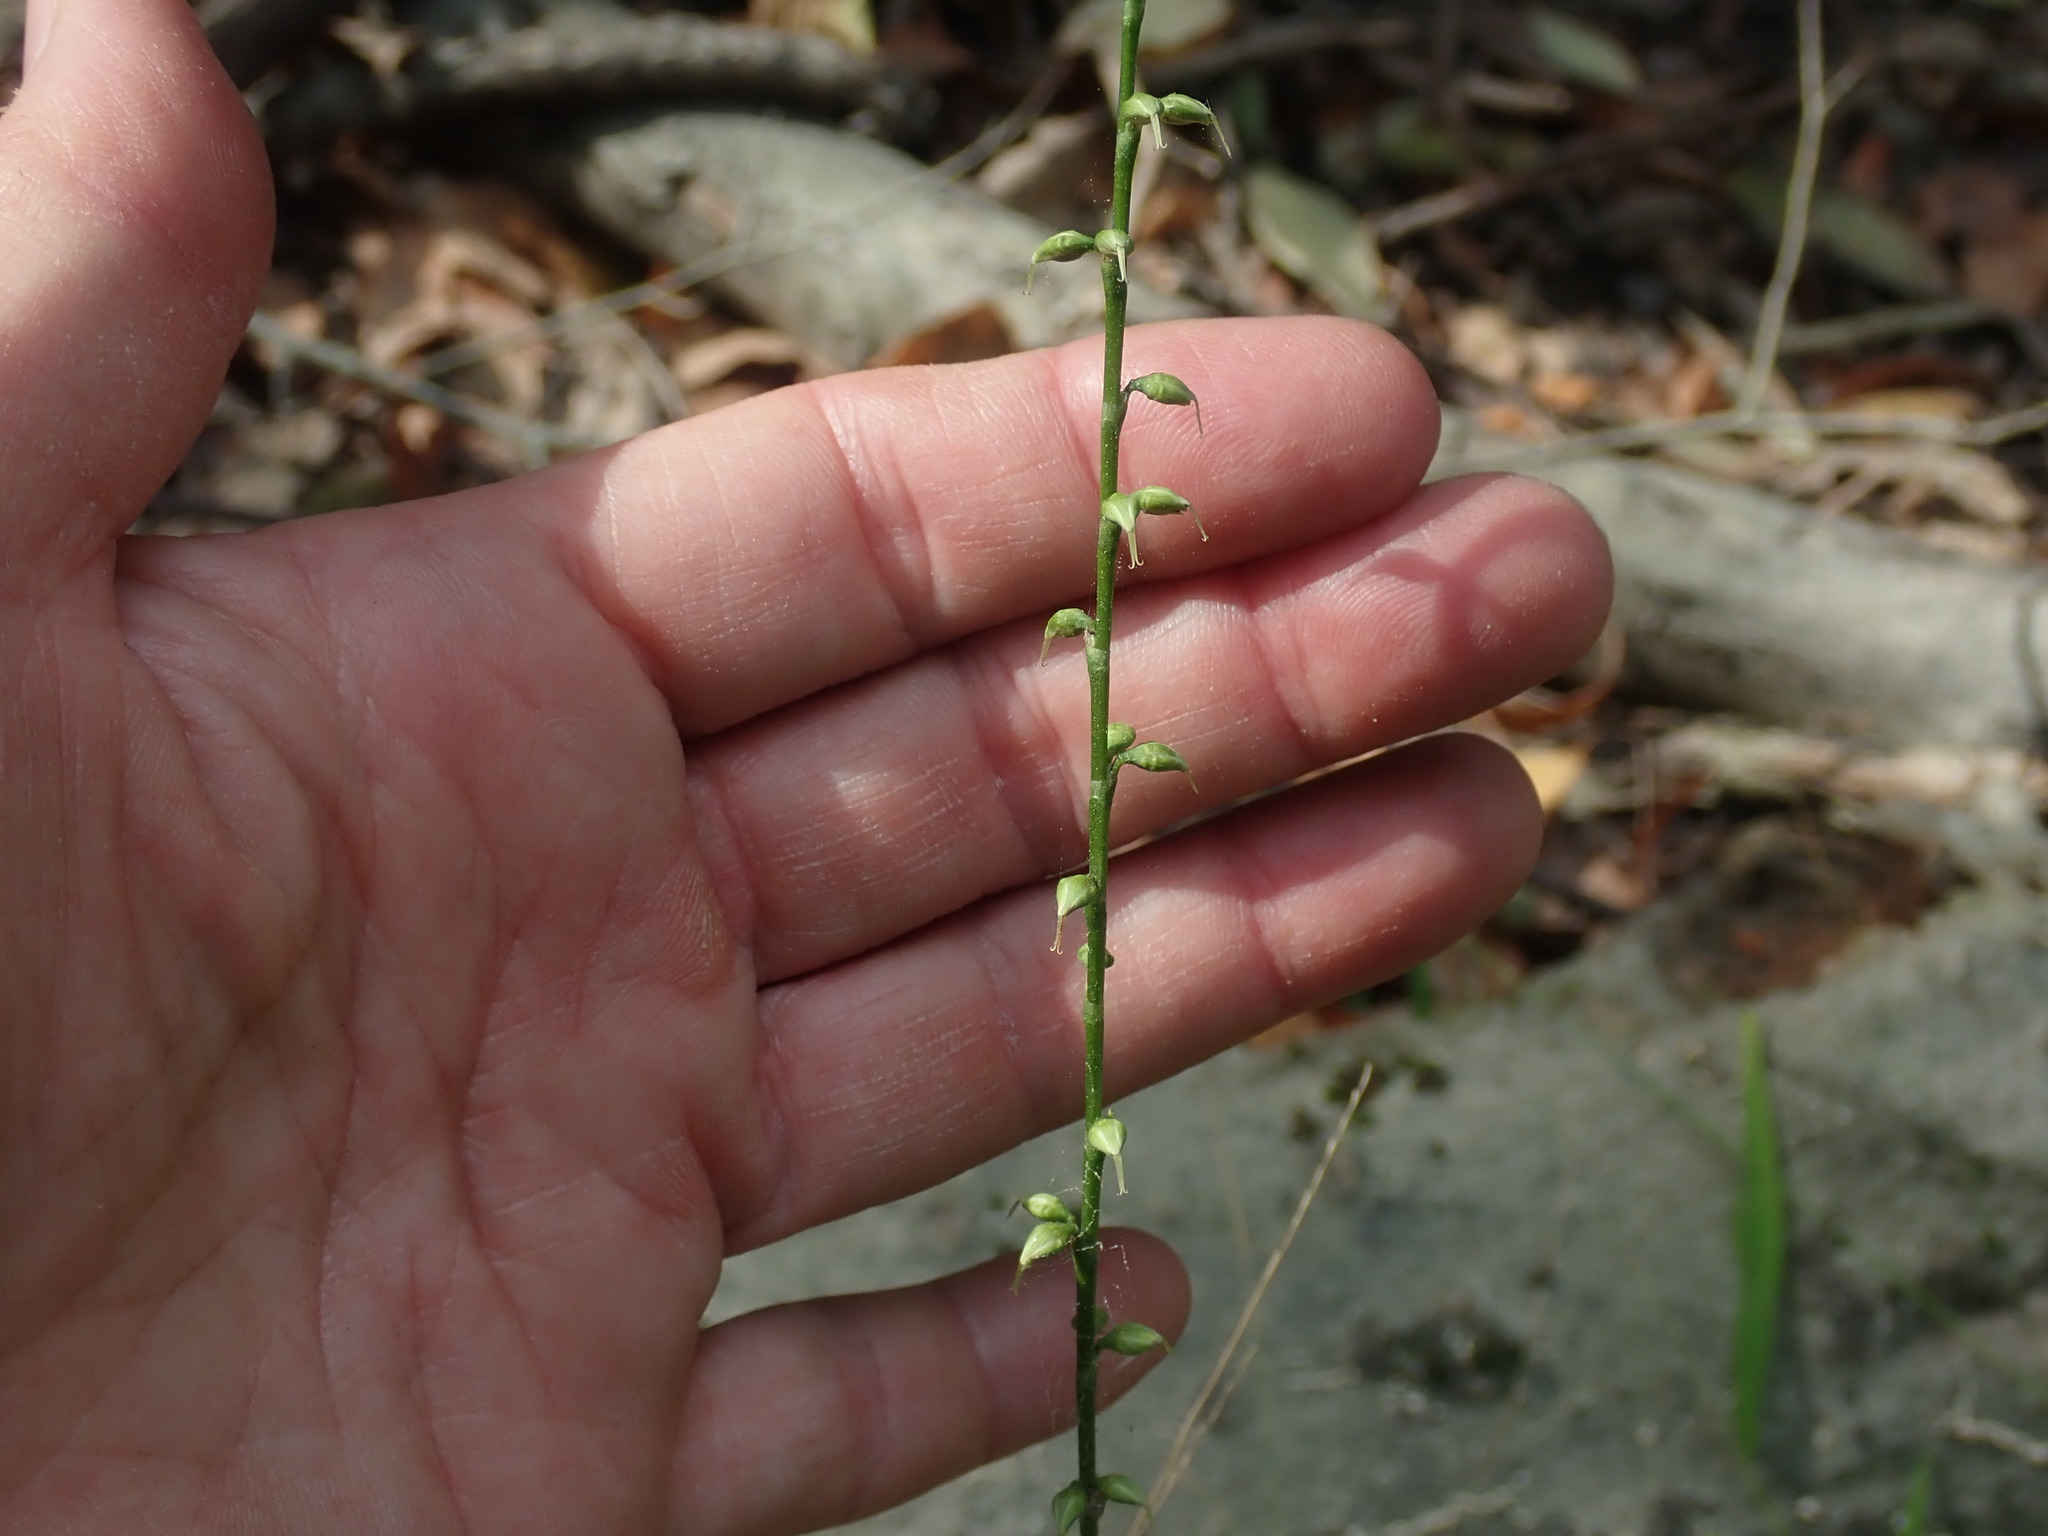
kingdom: Plantae
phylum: Tracheophyta
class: Magnoliopsida
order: Caryophyllales
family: Polygonaceae
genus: Persicaria
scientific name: Persicaria virginiana
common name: Jumpseed
